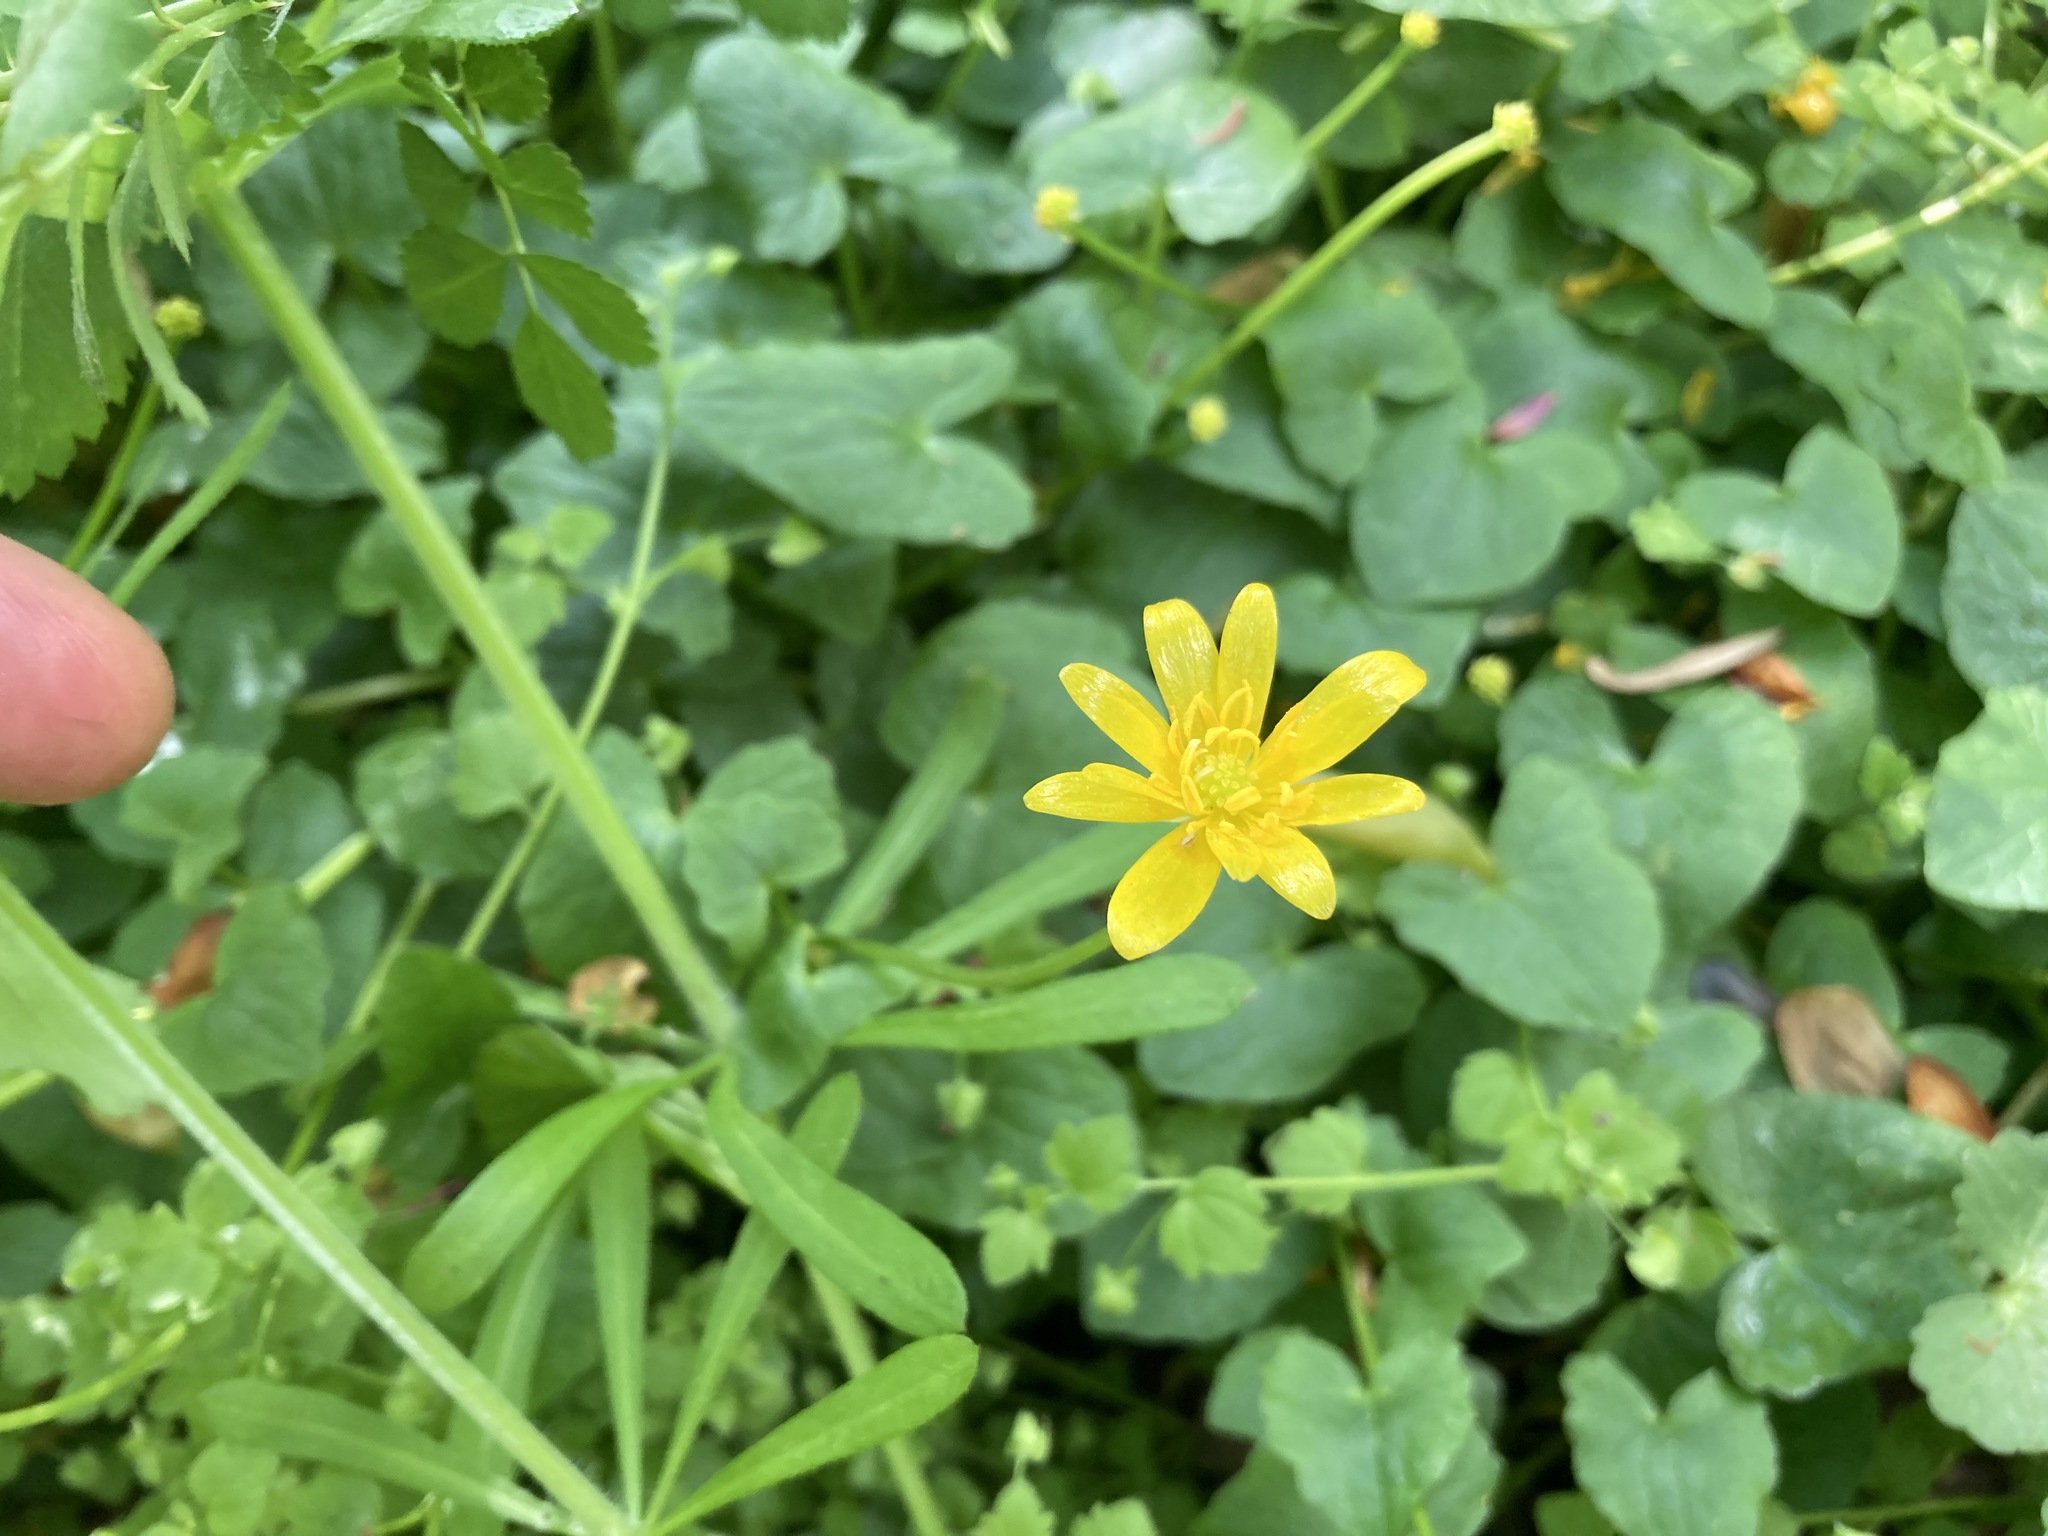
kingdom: Plantae
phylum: Tracheophyta
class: Magnoliopsida
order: Ranunculales
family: Ranunculaceae
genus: Ficaria
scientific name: Ficaria verna
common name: Lesser celandine
